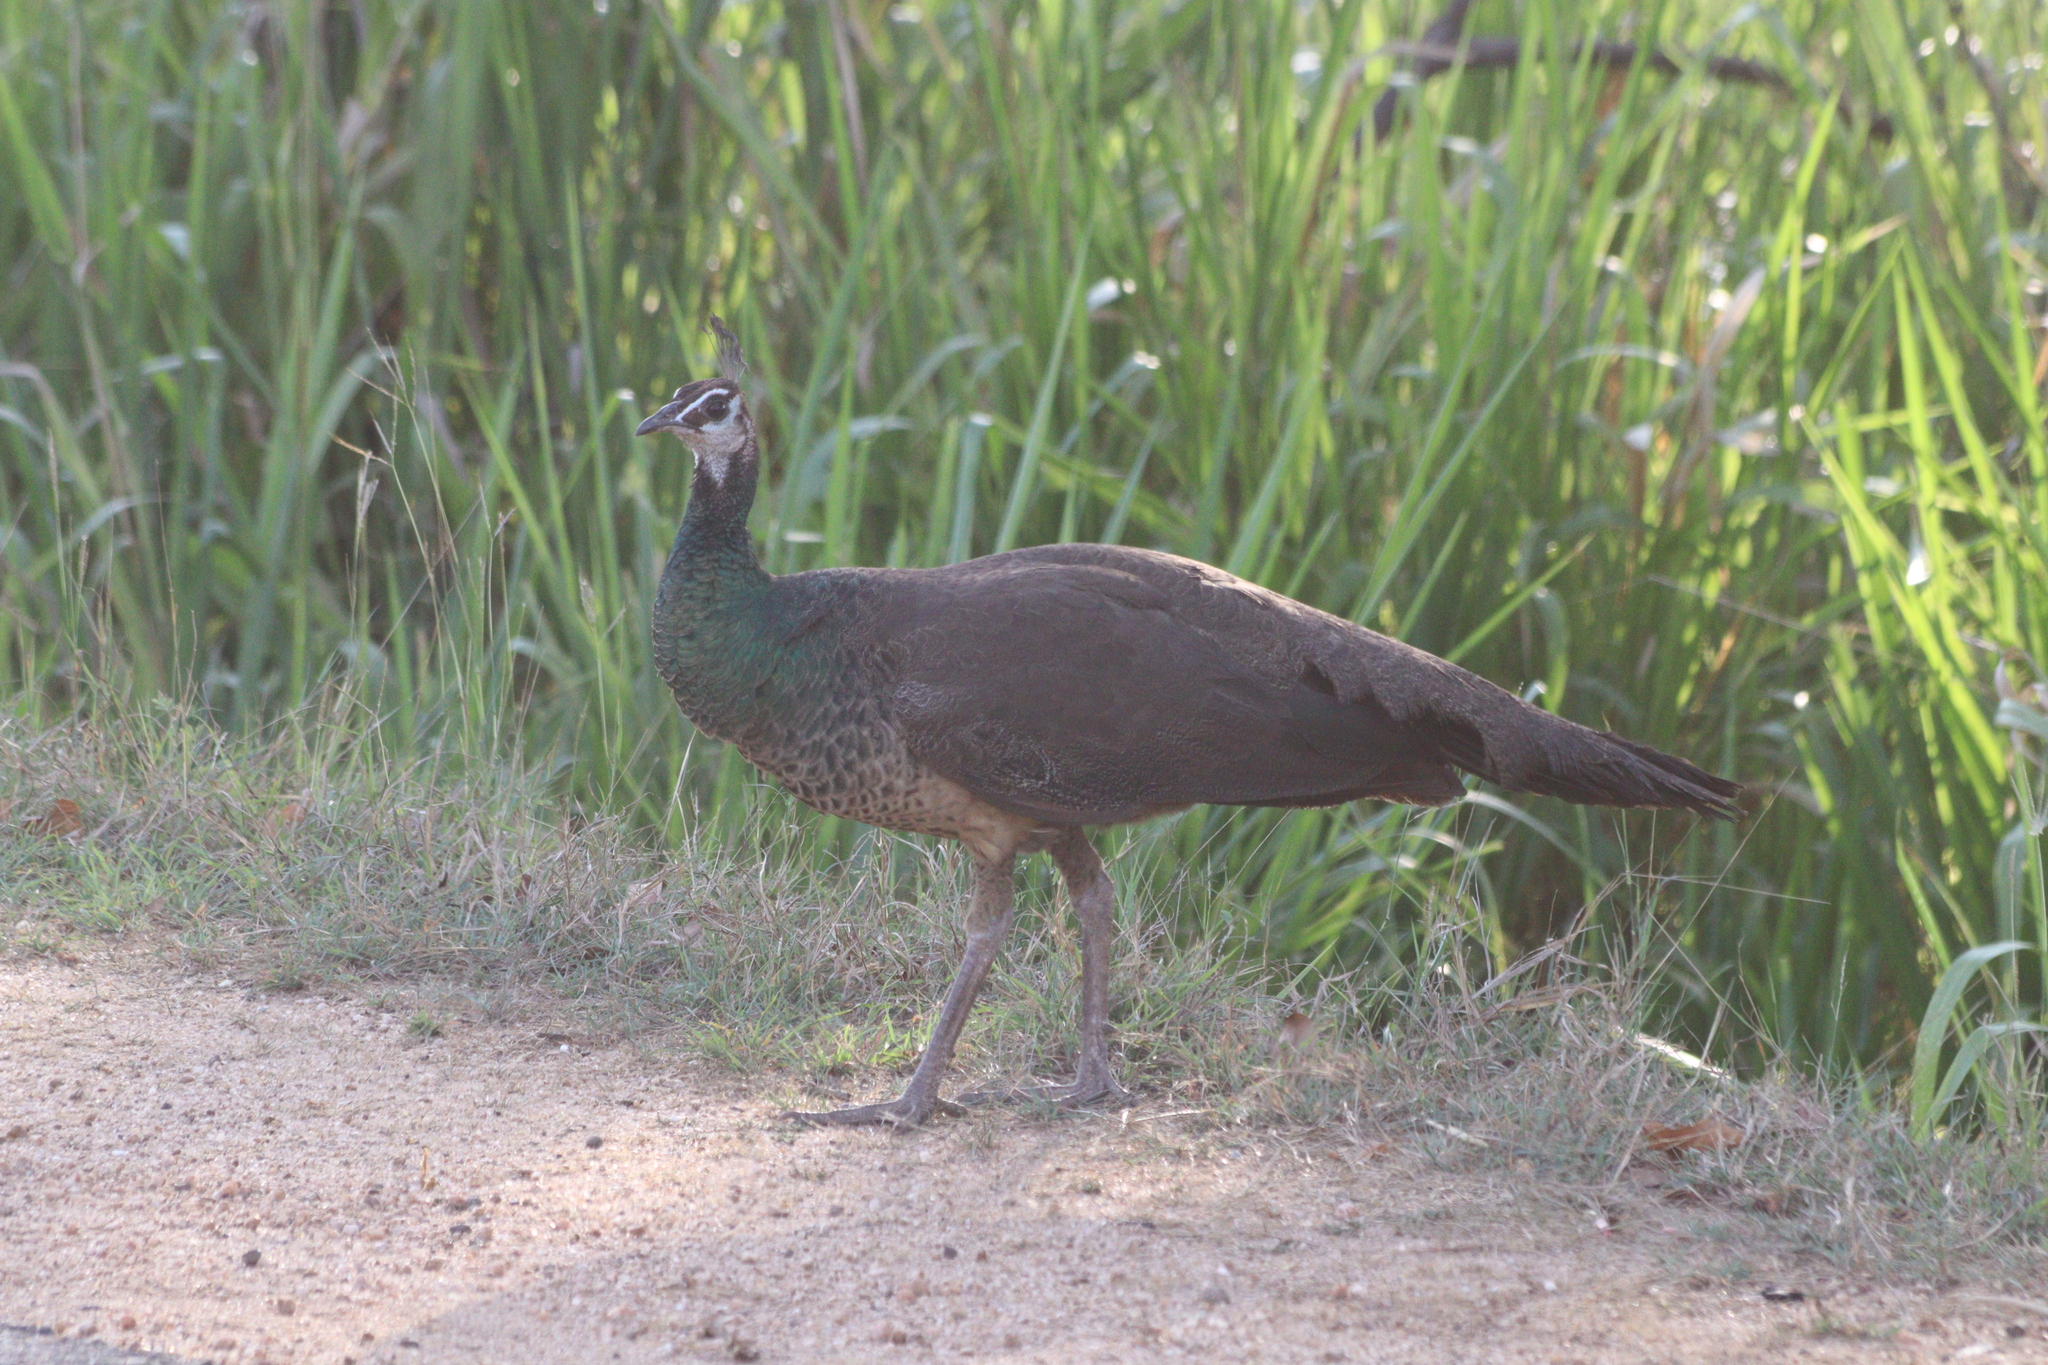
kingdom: Animalia
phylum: Chordata
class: Aves
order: Galliformes
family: Phasianidae
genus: Pavo
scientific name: Pavo cristatus
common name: Indian peafowl
